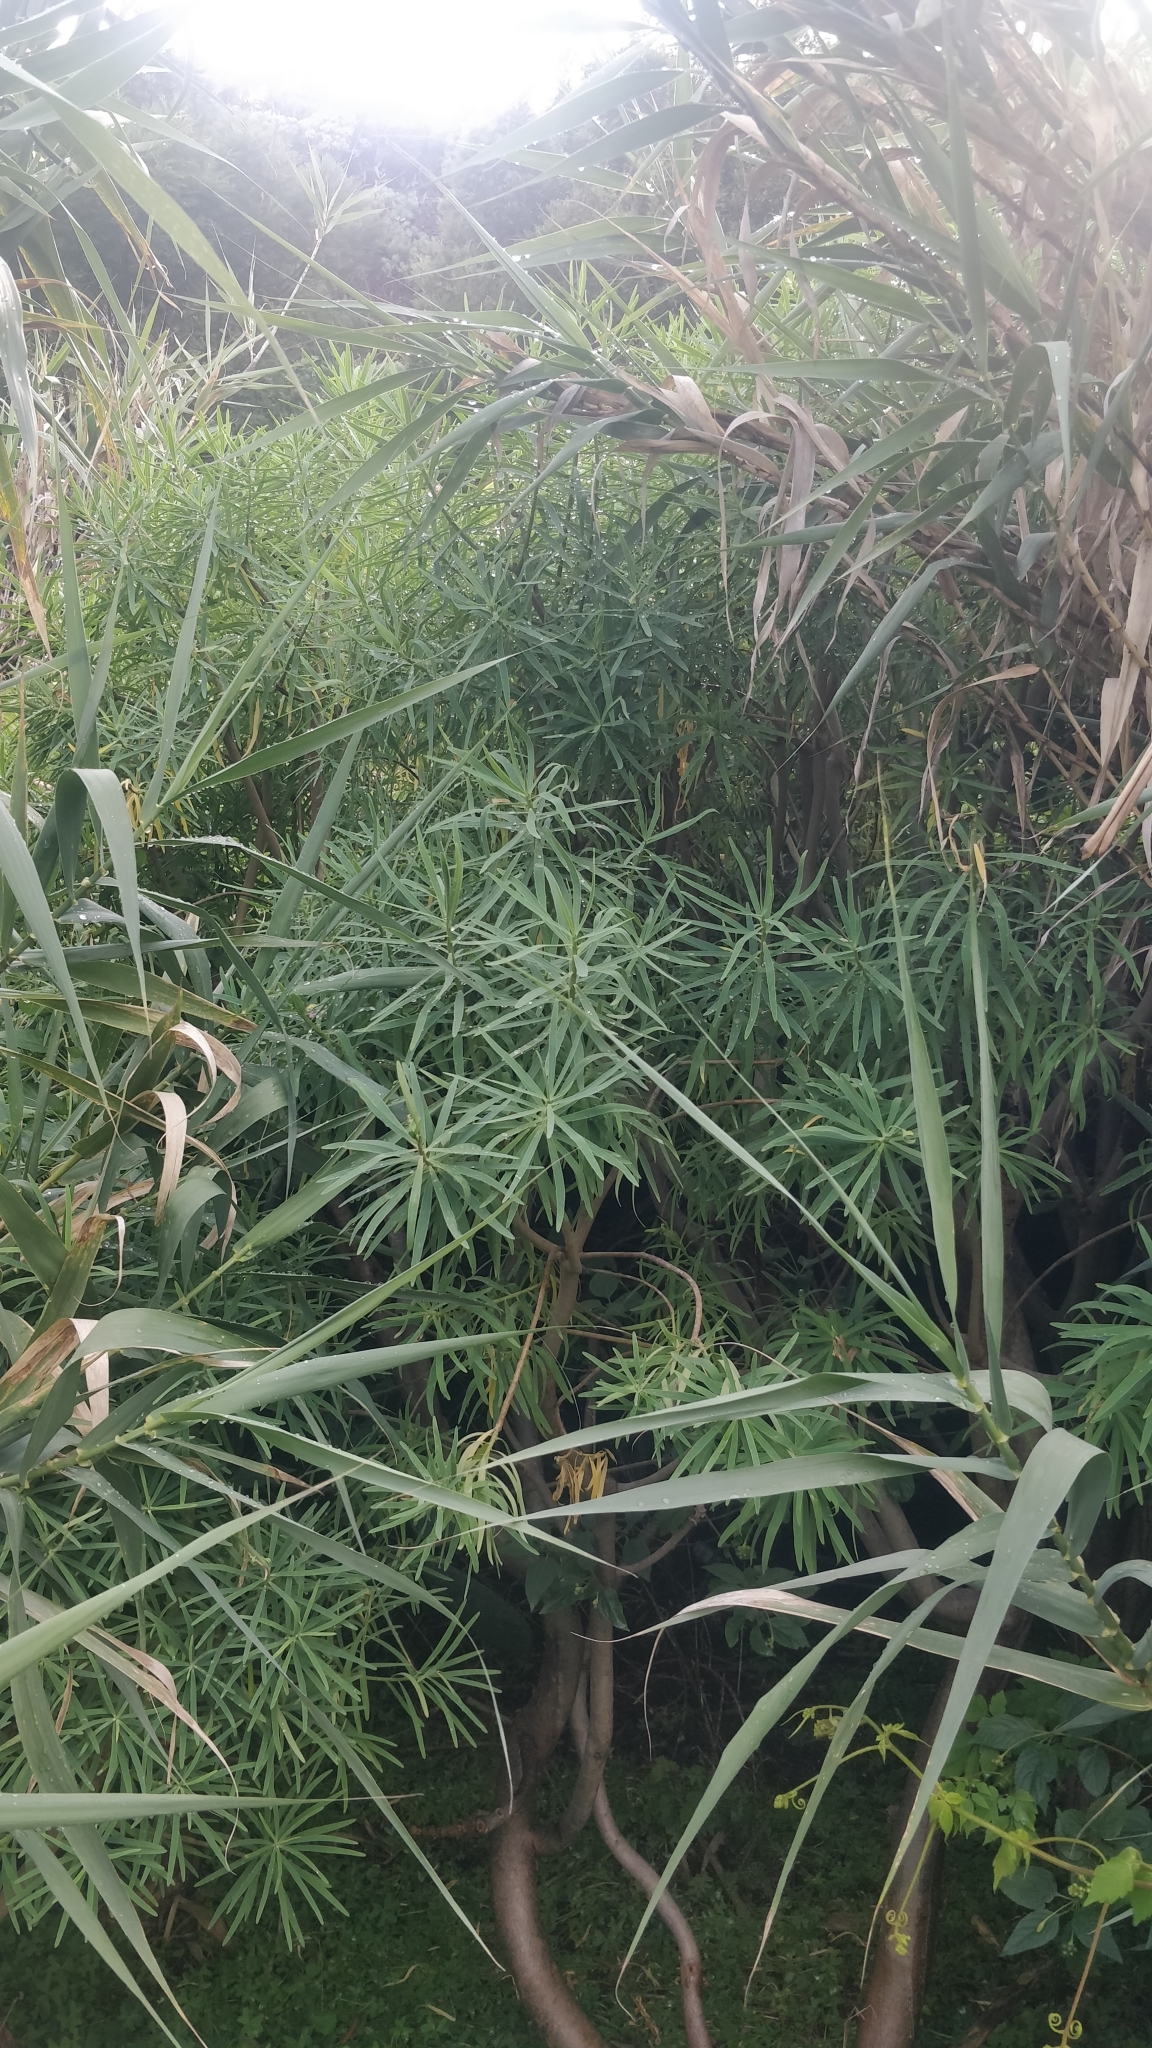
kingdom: Plantae
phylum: Tracheophyta
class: Magnoliopsida
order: Malpighiales
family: Euphorbiaceae
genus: Euphorbia
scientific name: Euphorbia piscatoria
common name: Fish-stunning spurge
